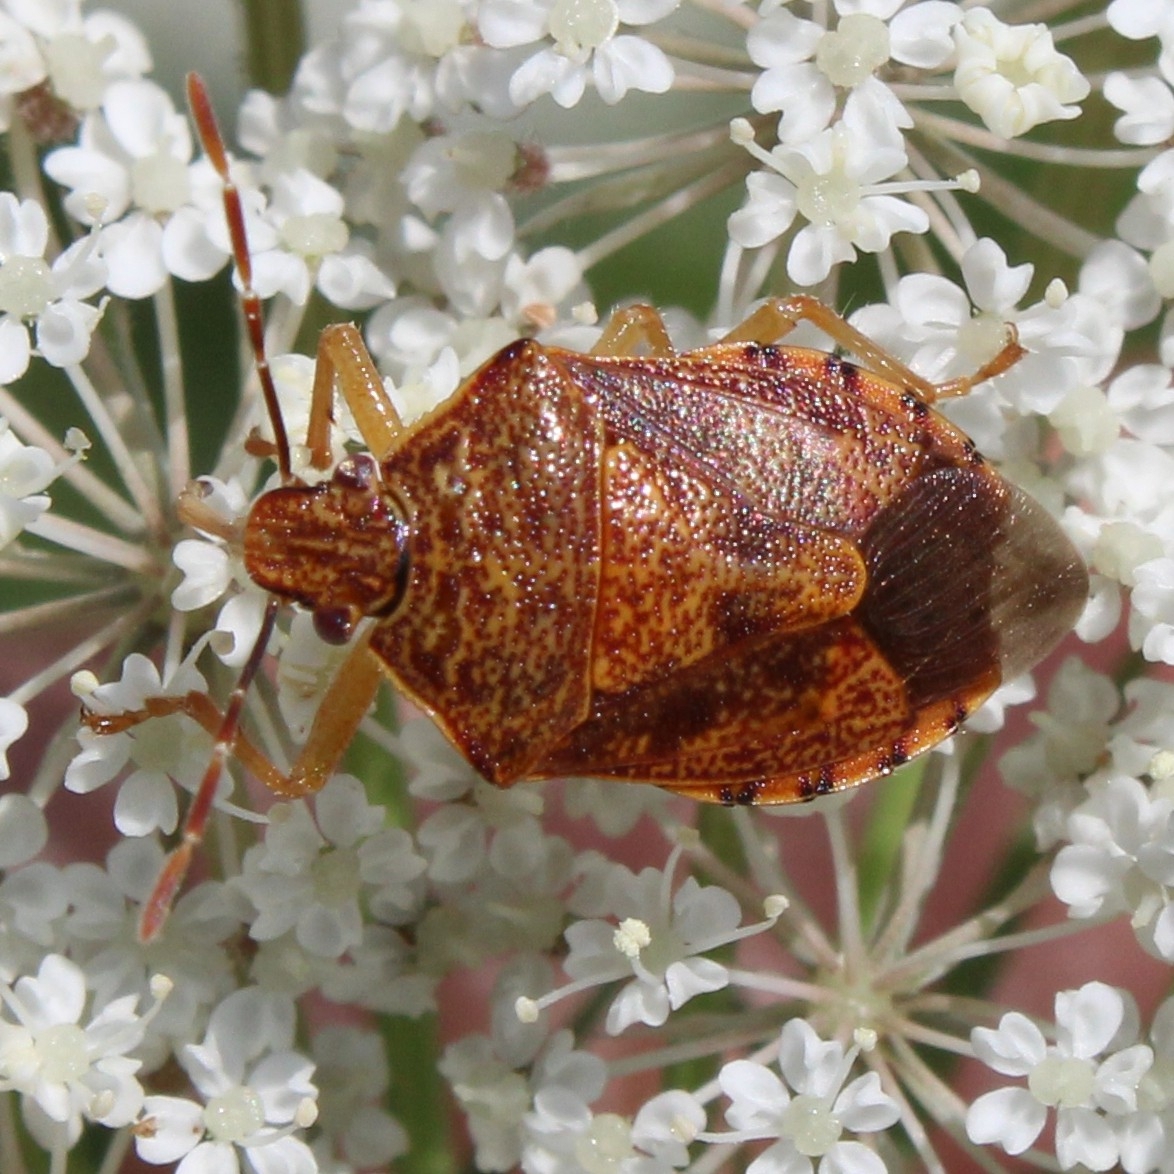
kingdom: Animalia
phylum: Arthropoda
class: Insecta
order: Hemiptera
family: Pentatomidae
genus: Podisus
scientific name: Podisus placidus
